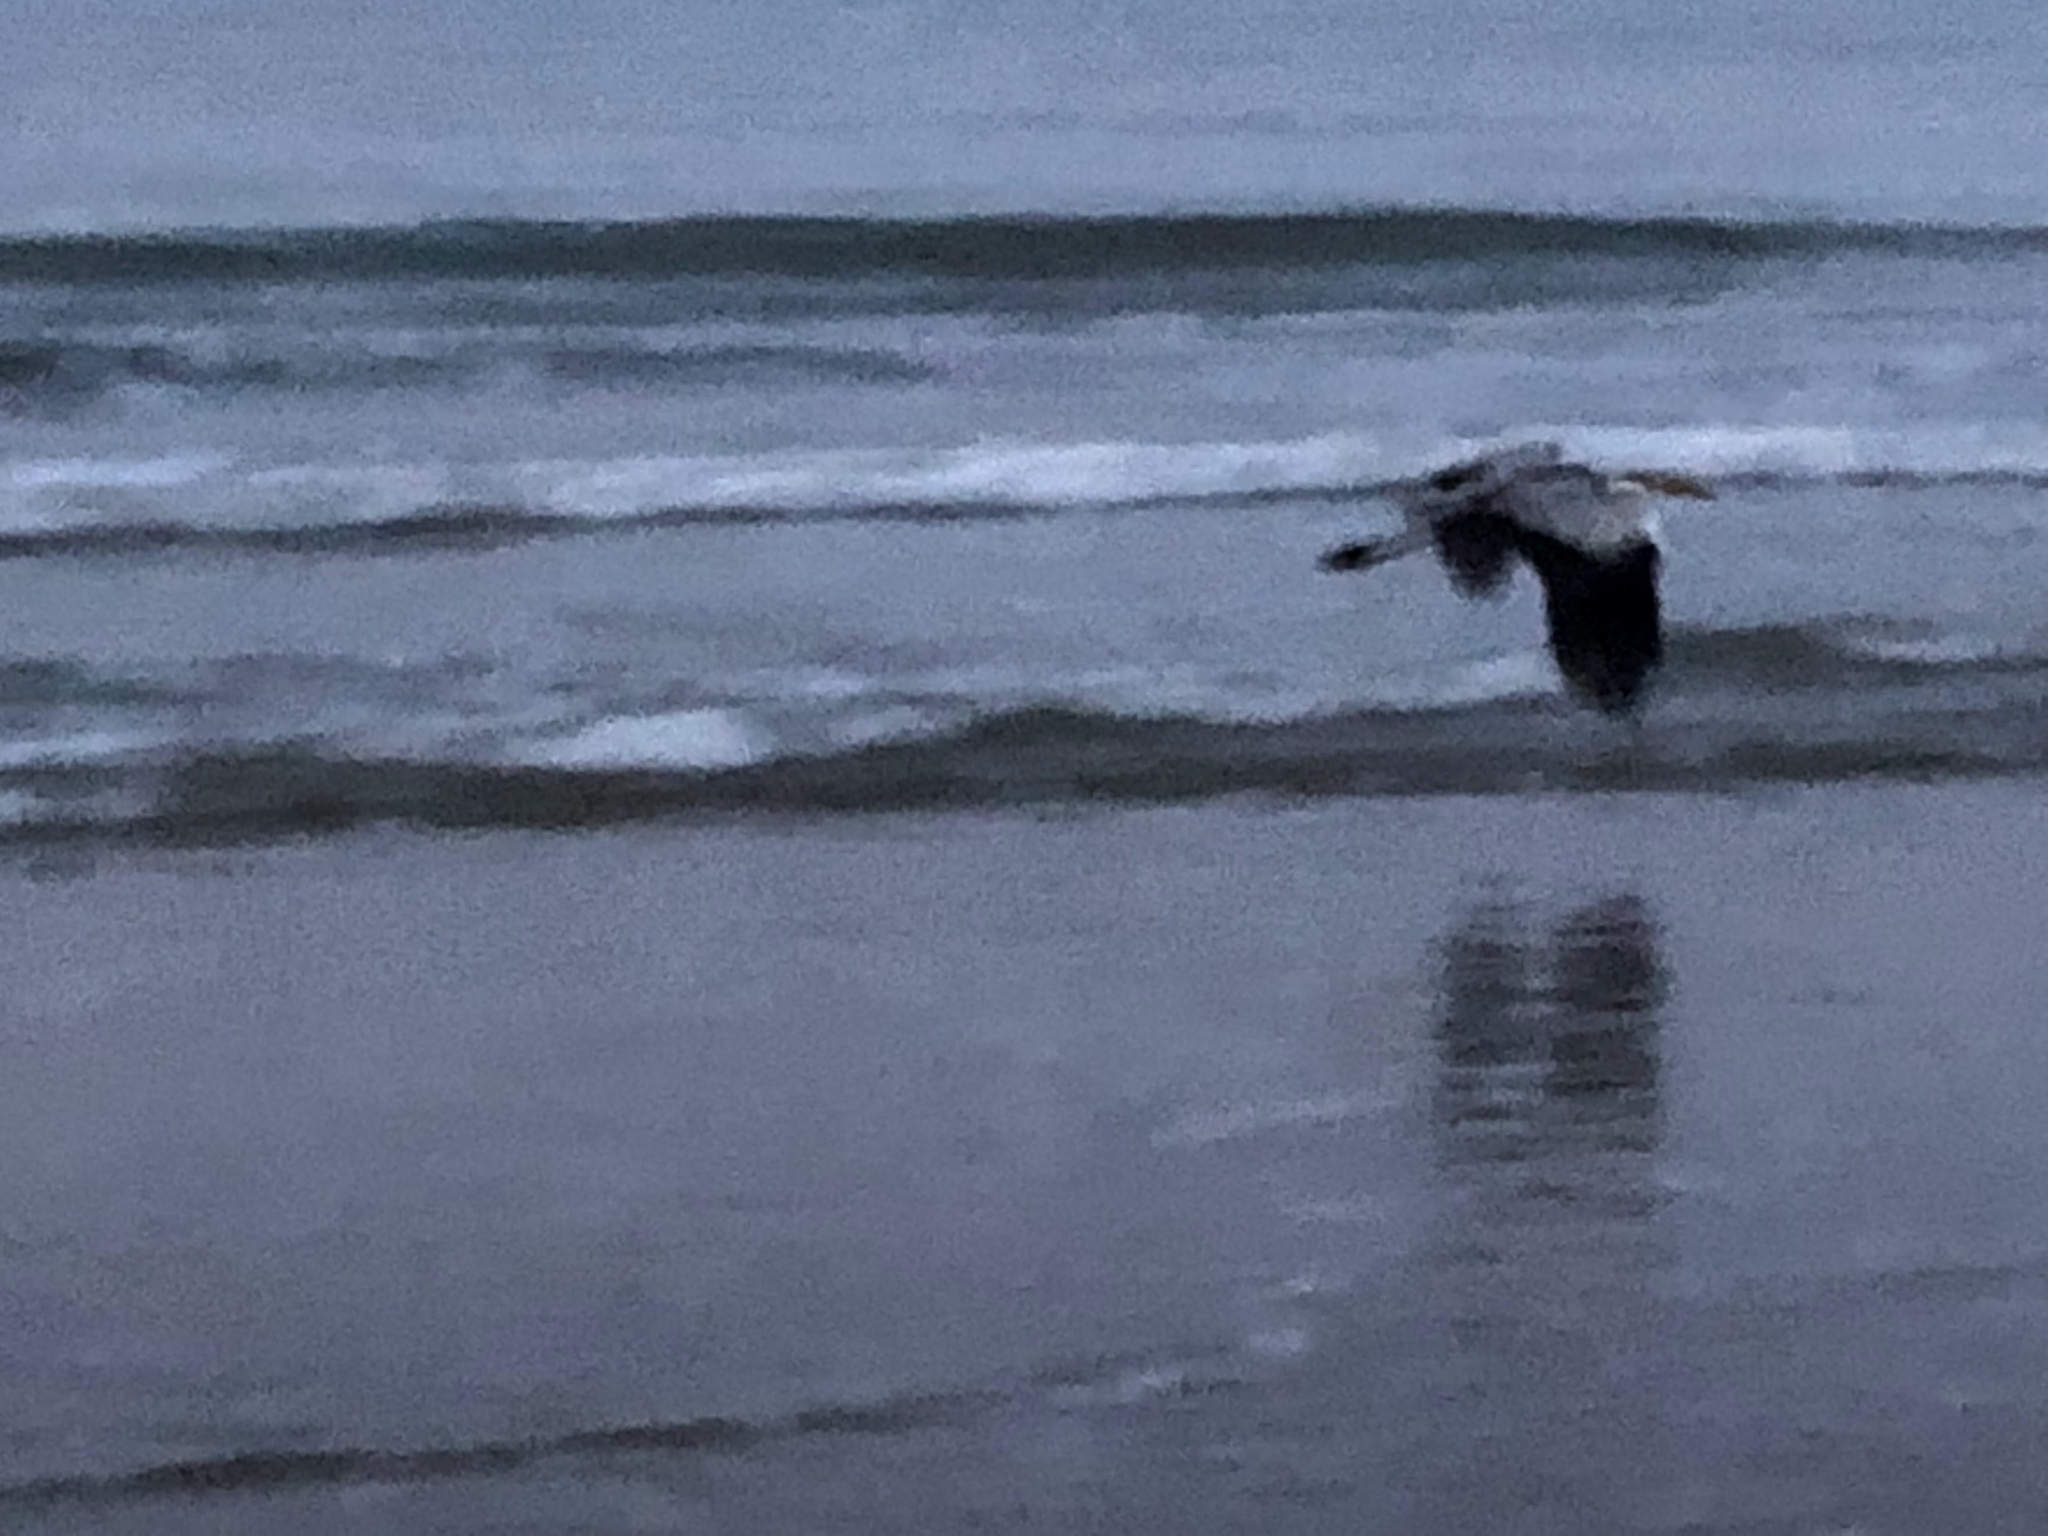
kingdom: Animalia
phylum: Chordata
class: Aves
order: Pelecaniformes
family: Ardeidae
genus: Ardea
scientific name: Ardea cinerea
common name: Grey heron
